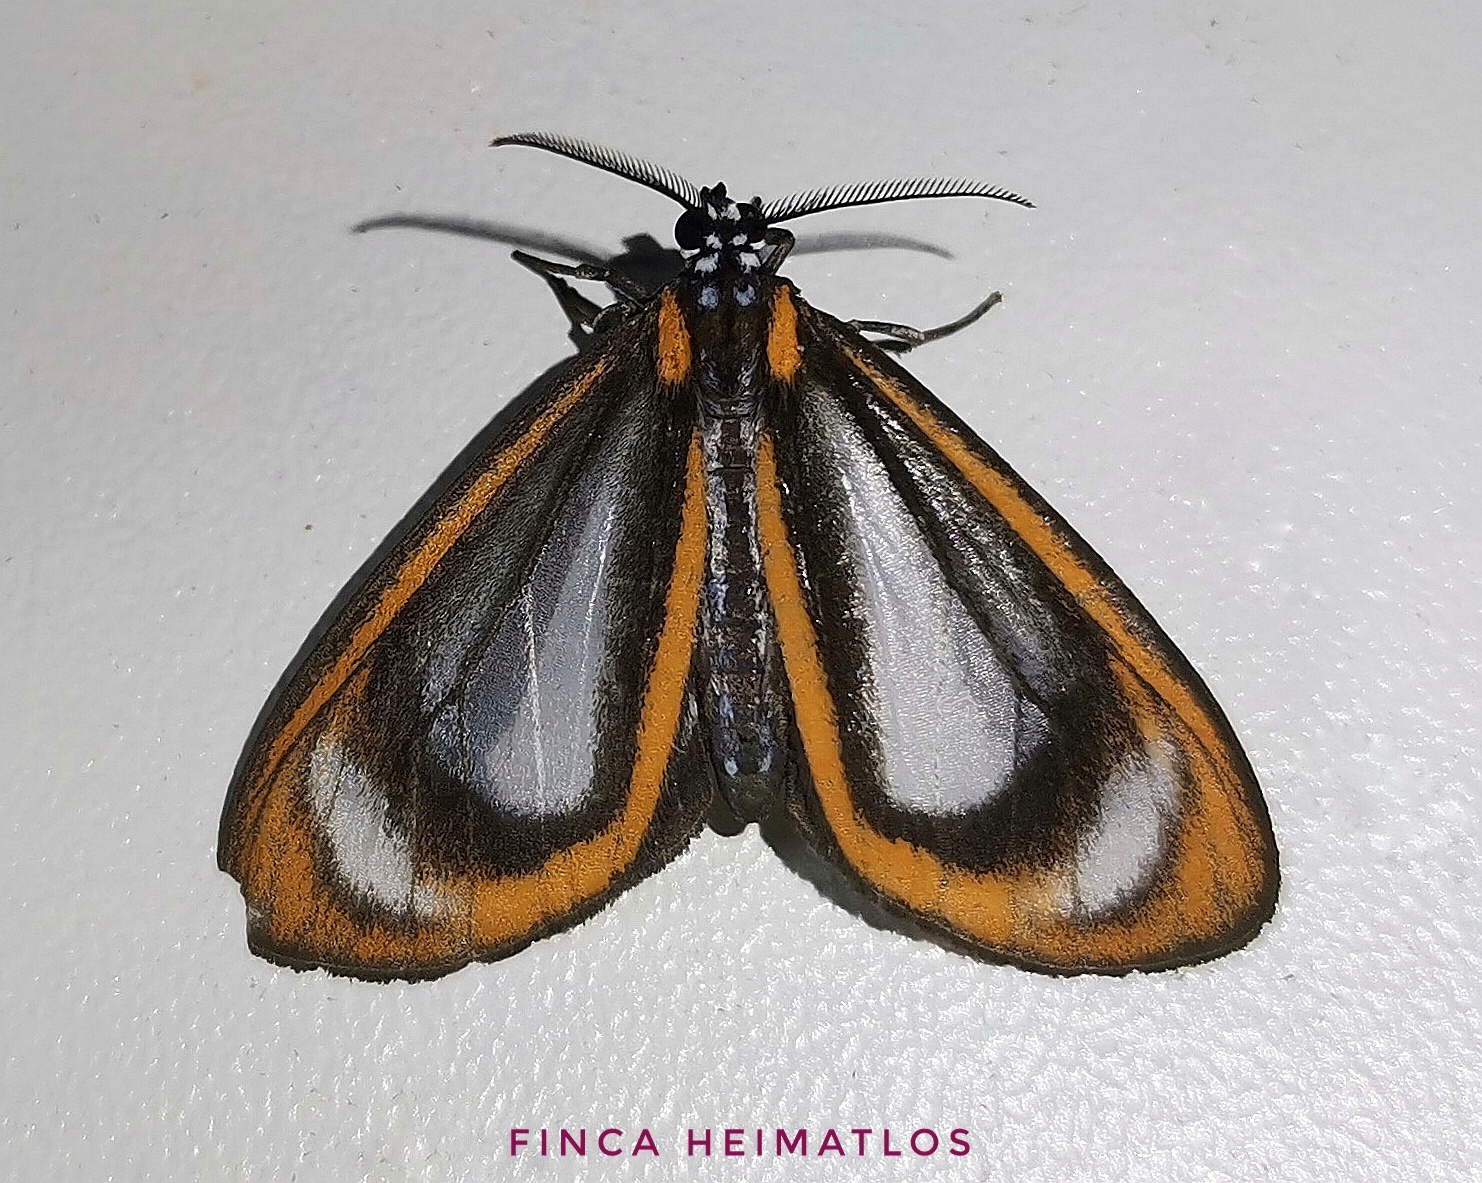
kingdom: Animalia
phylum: Arthropoda
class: Insecta
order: Lepidoptera
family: Erebidae
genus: Hyalurga
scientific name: Hyalurga batesi
